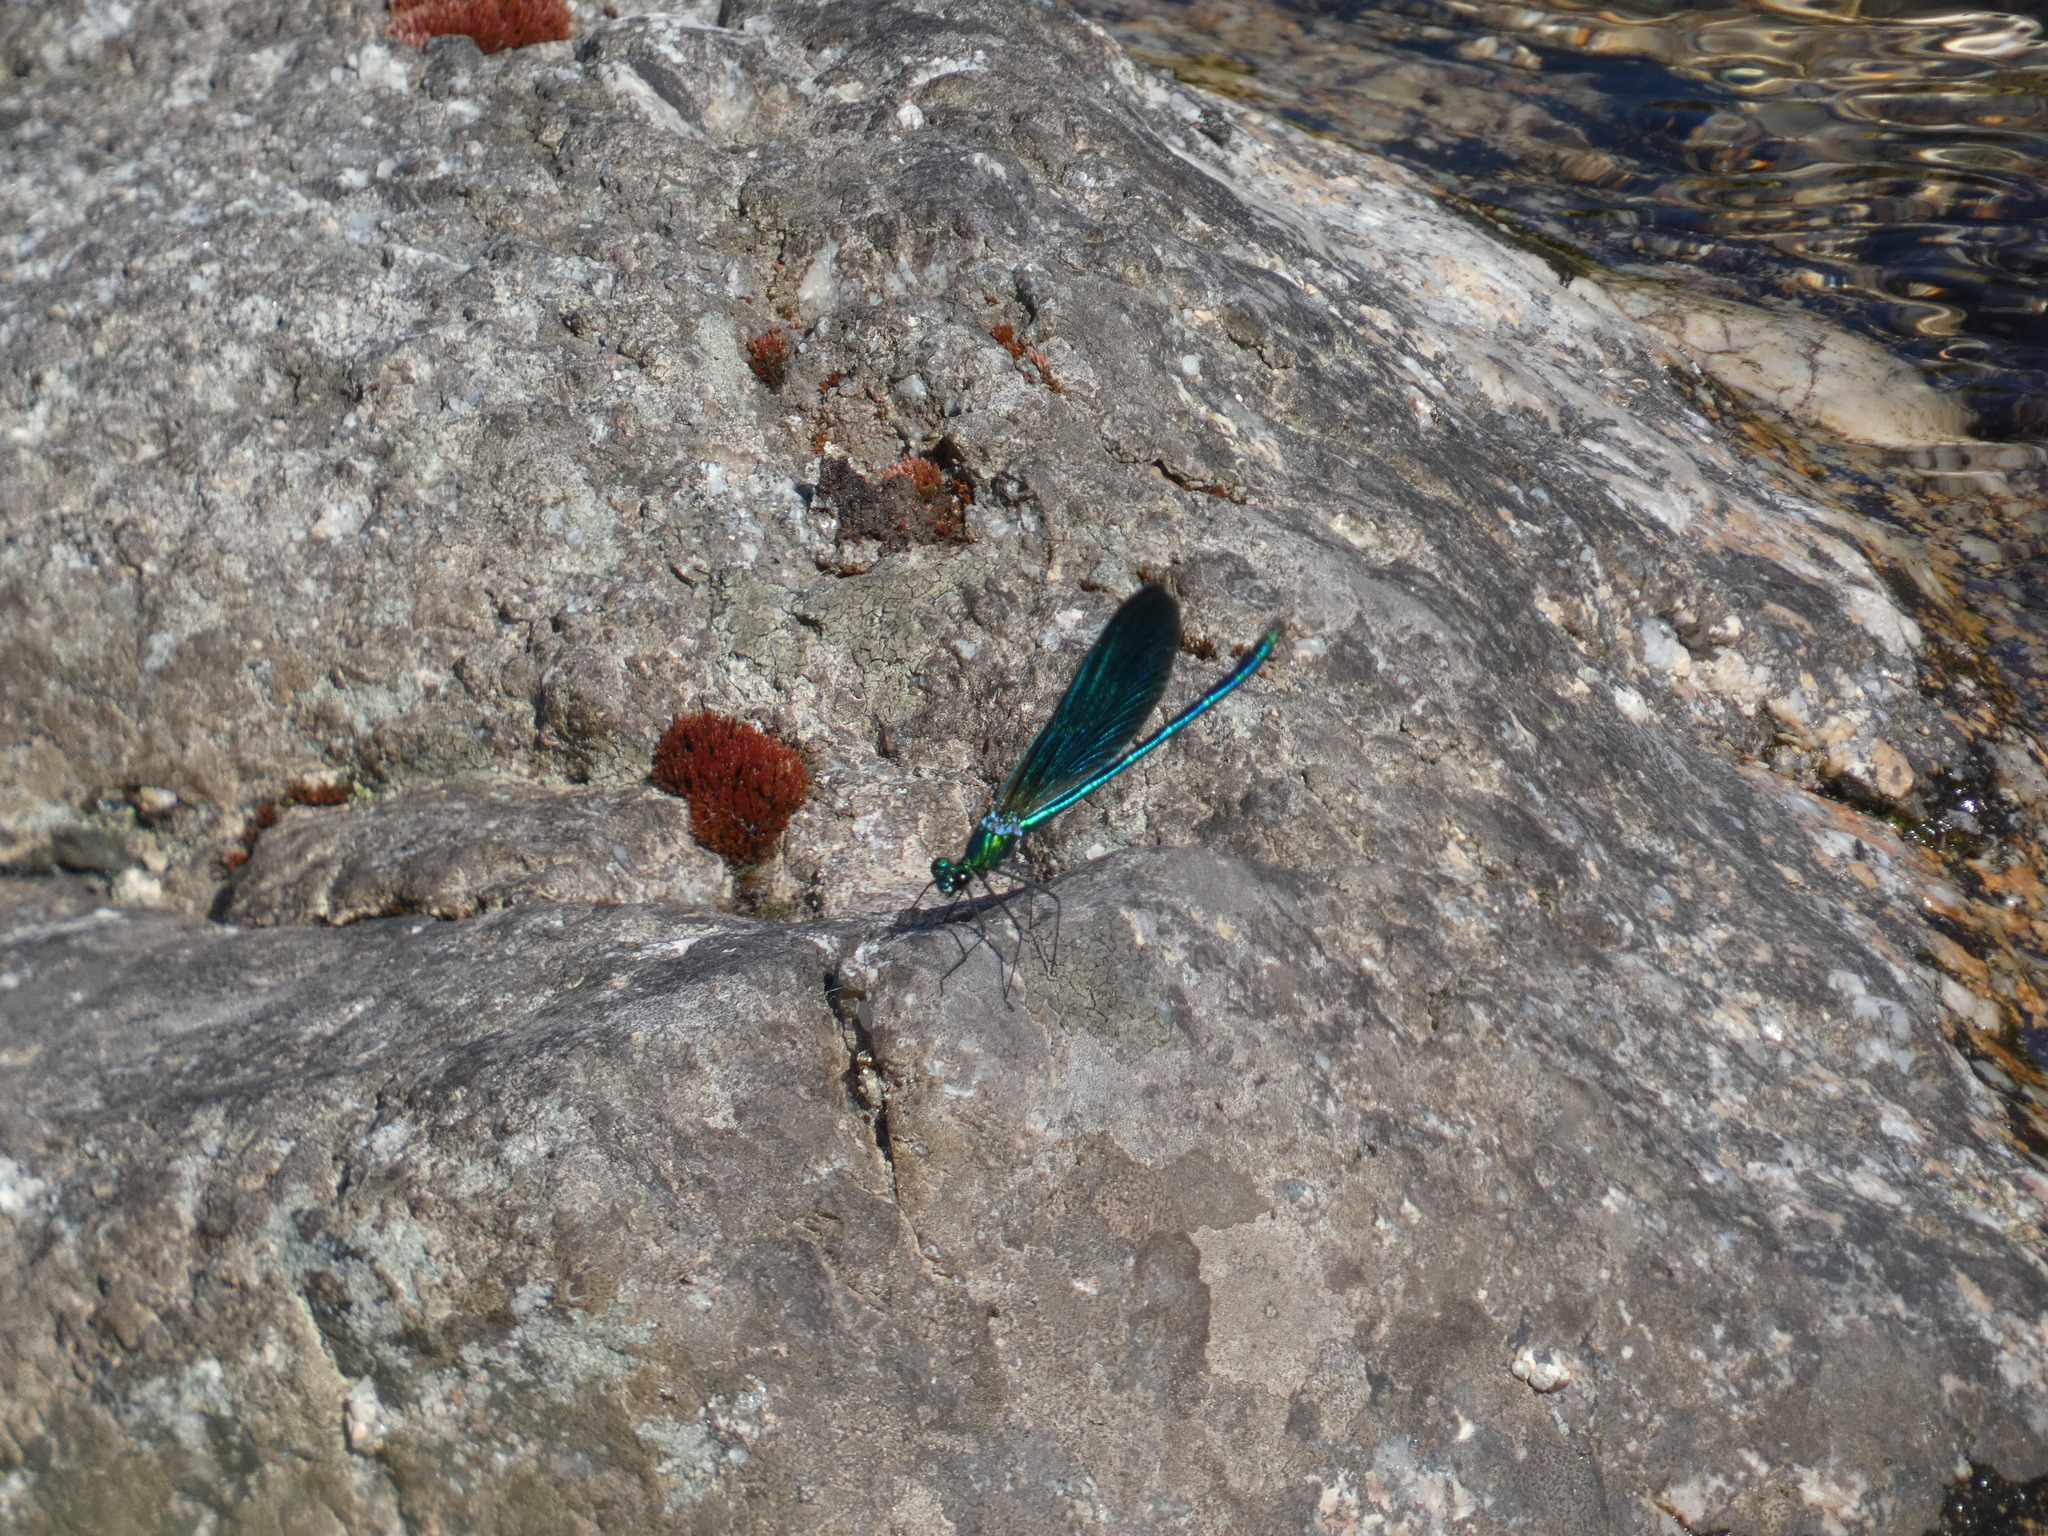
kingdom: Animalia
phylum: Arthropoda
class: Insecta
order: Odonata
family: Calopterygidae
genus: Calopteryx
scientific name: Calopteryx virgo
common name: Beautiful demoiselle
